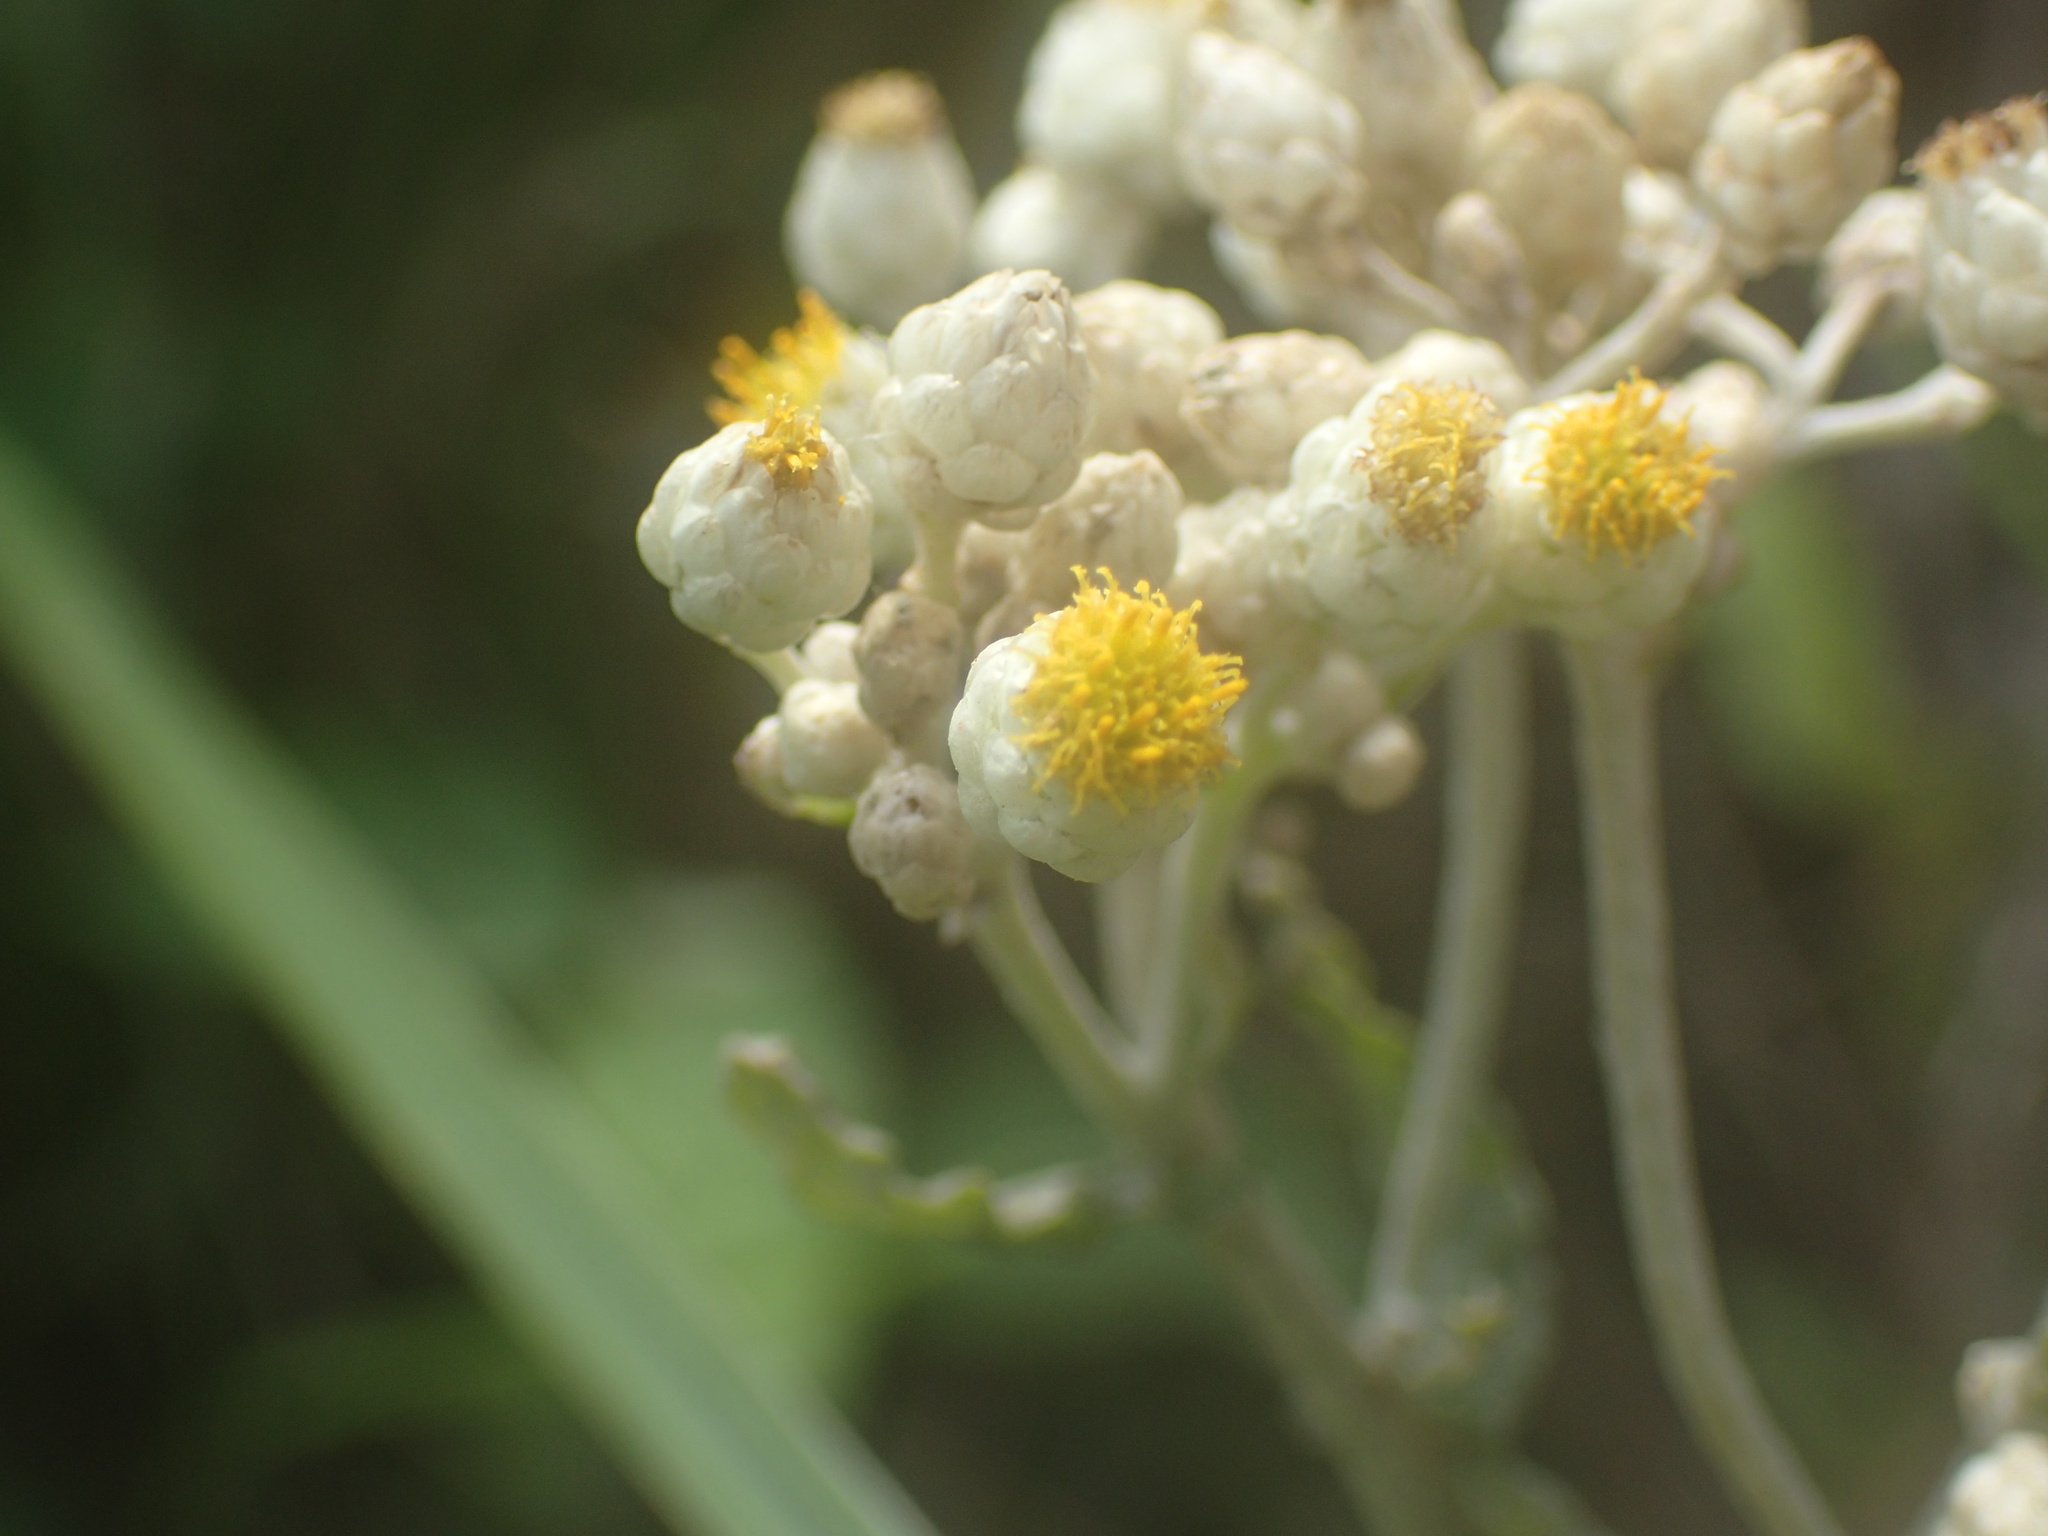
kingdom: Plantae
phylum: Tracheophyta
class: Magnoliopsida
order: Asterales
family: Asteraceae
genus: Helichrysum
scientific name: Helichrysum panduratum
